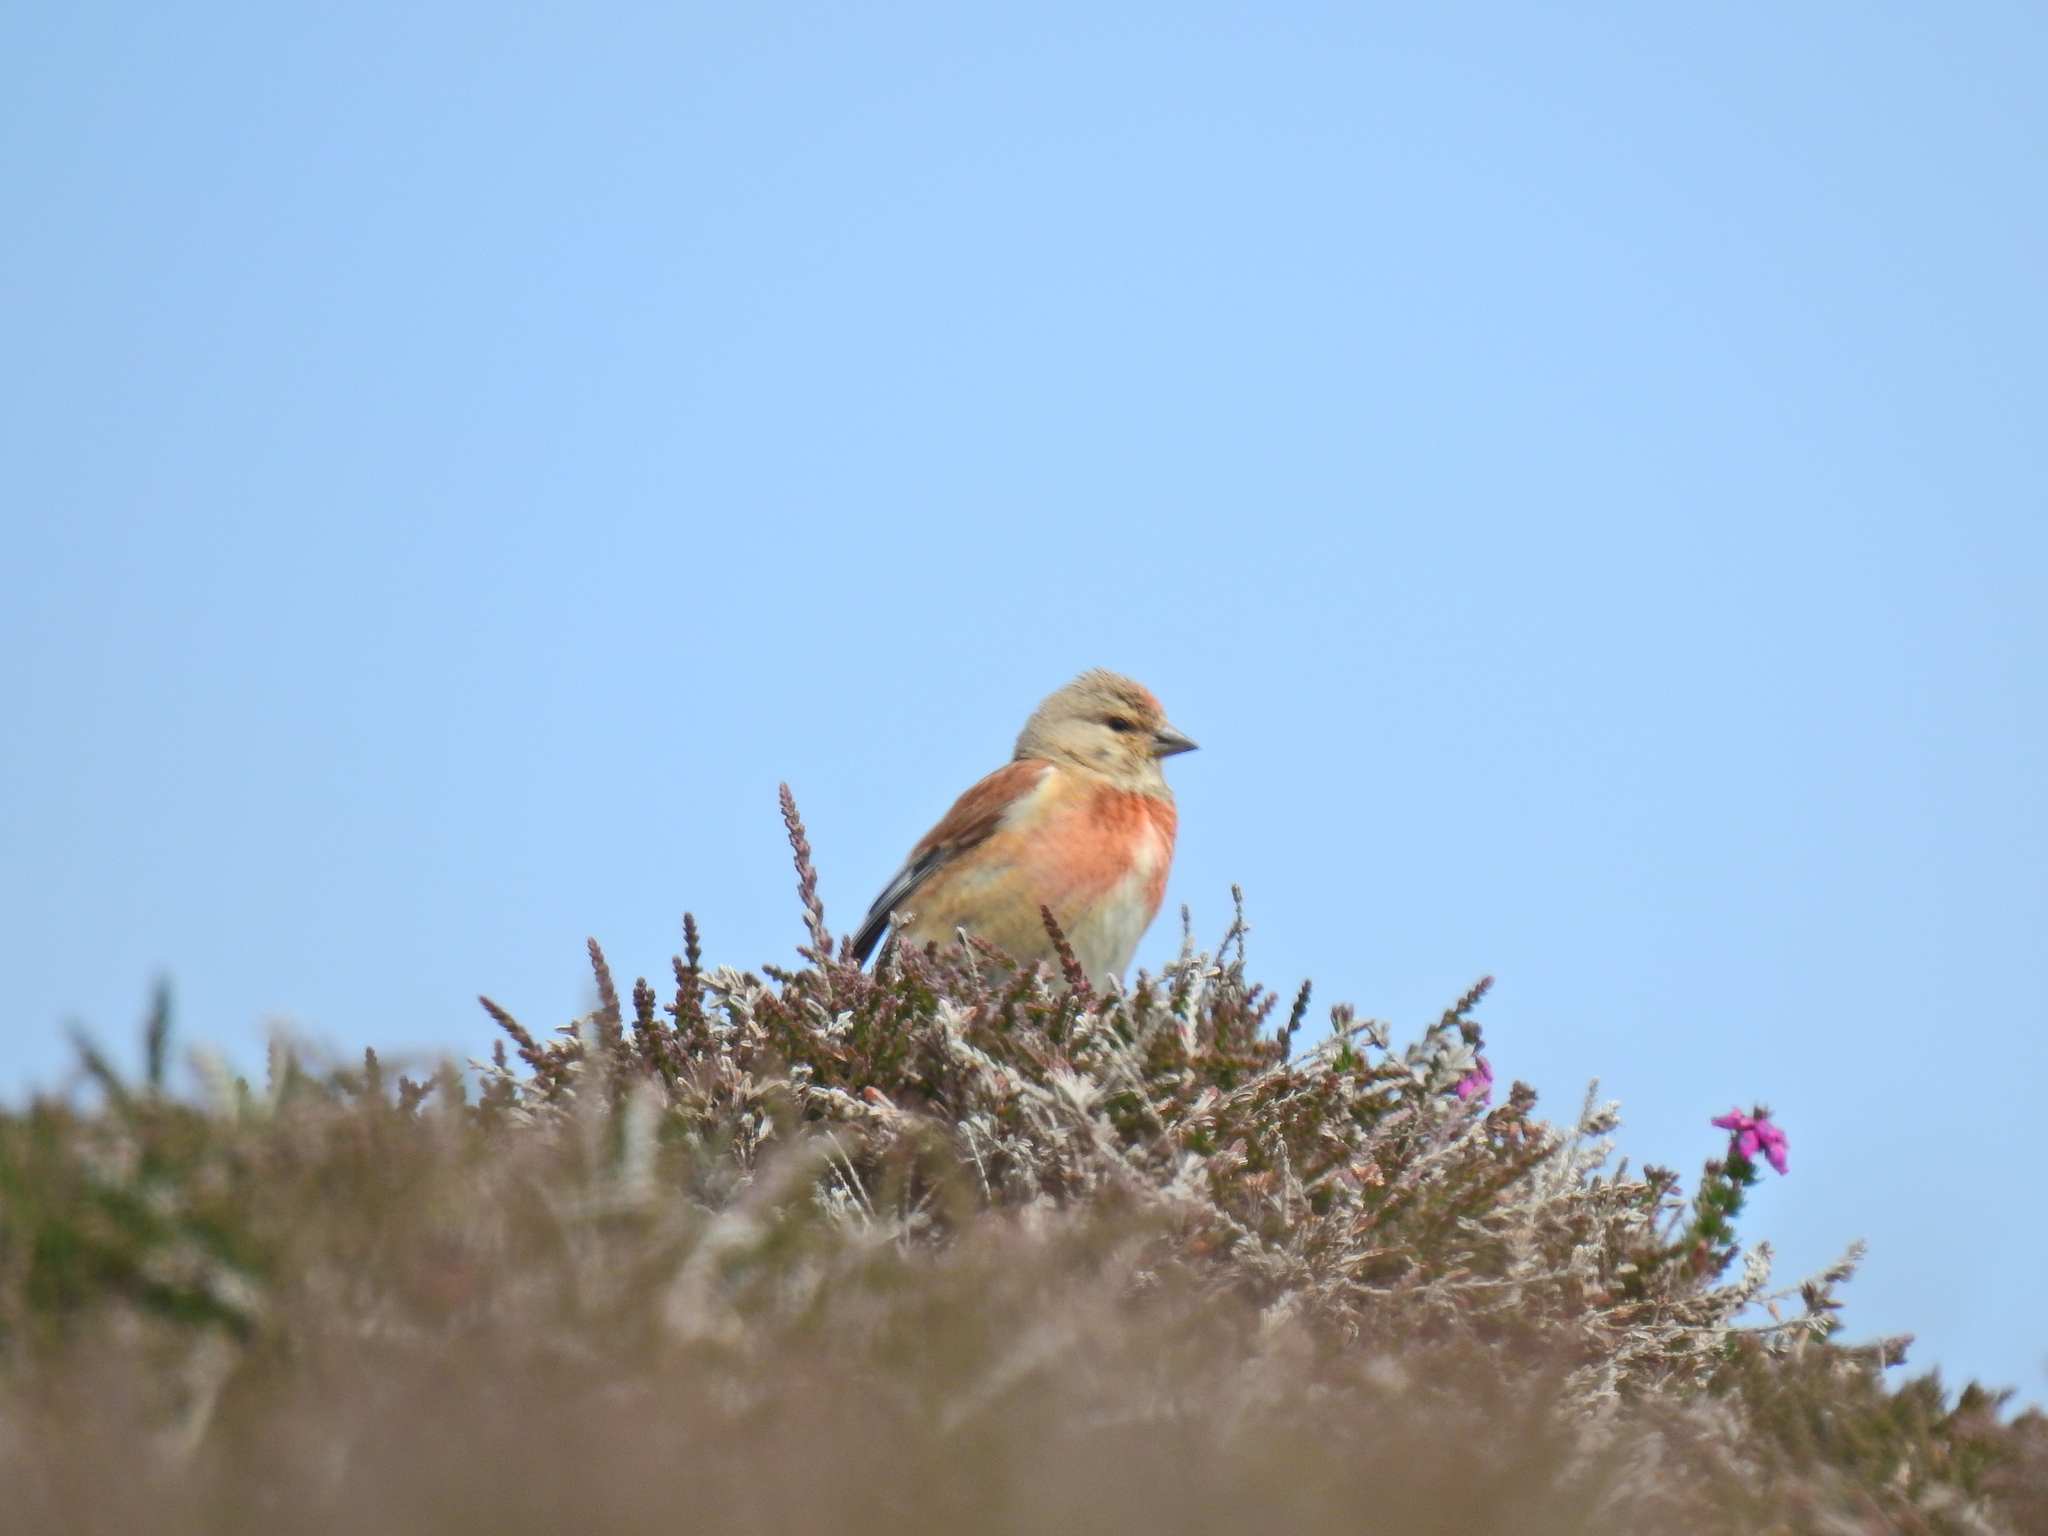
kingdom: Animalia
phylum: Chordata
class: Aves
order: Passeriformes
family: Fringillidae
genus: Linaria
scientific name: Linaria cannabina
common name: Common linnet
